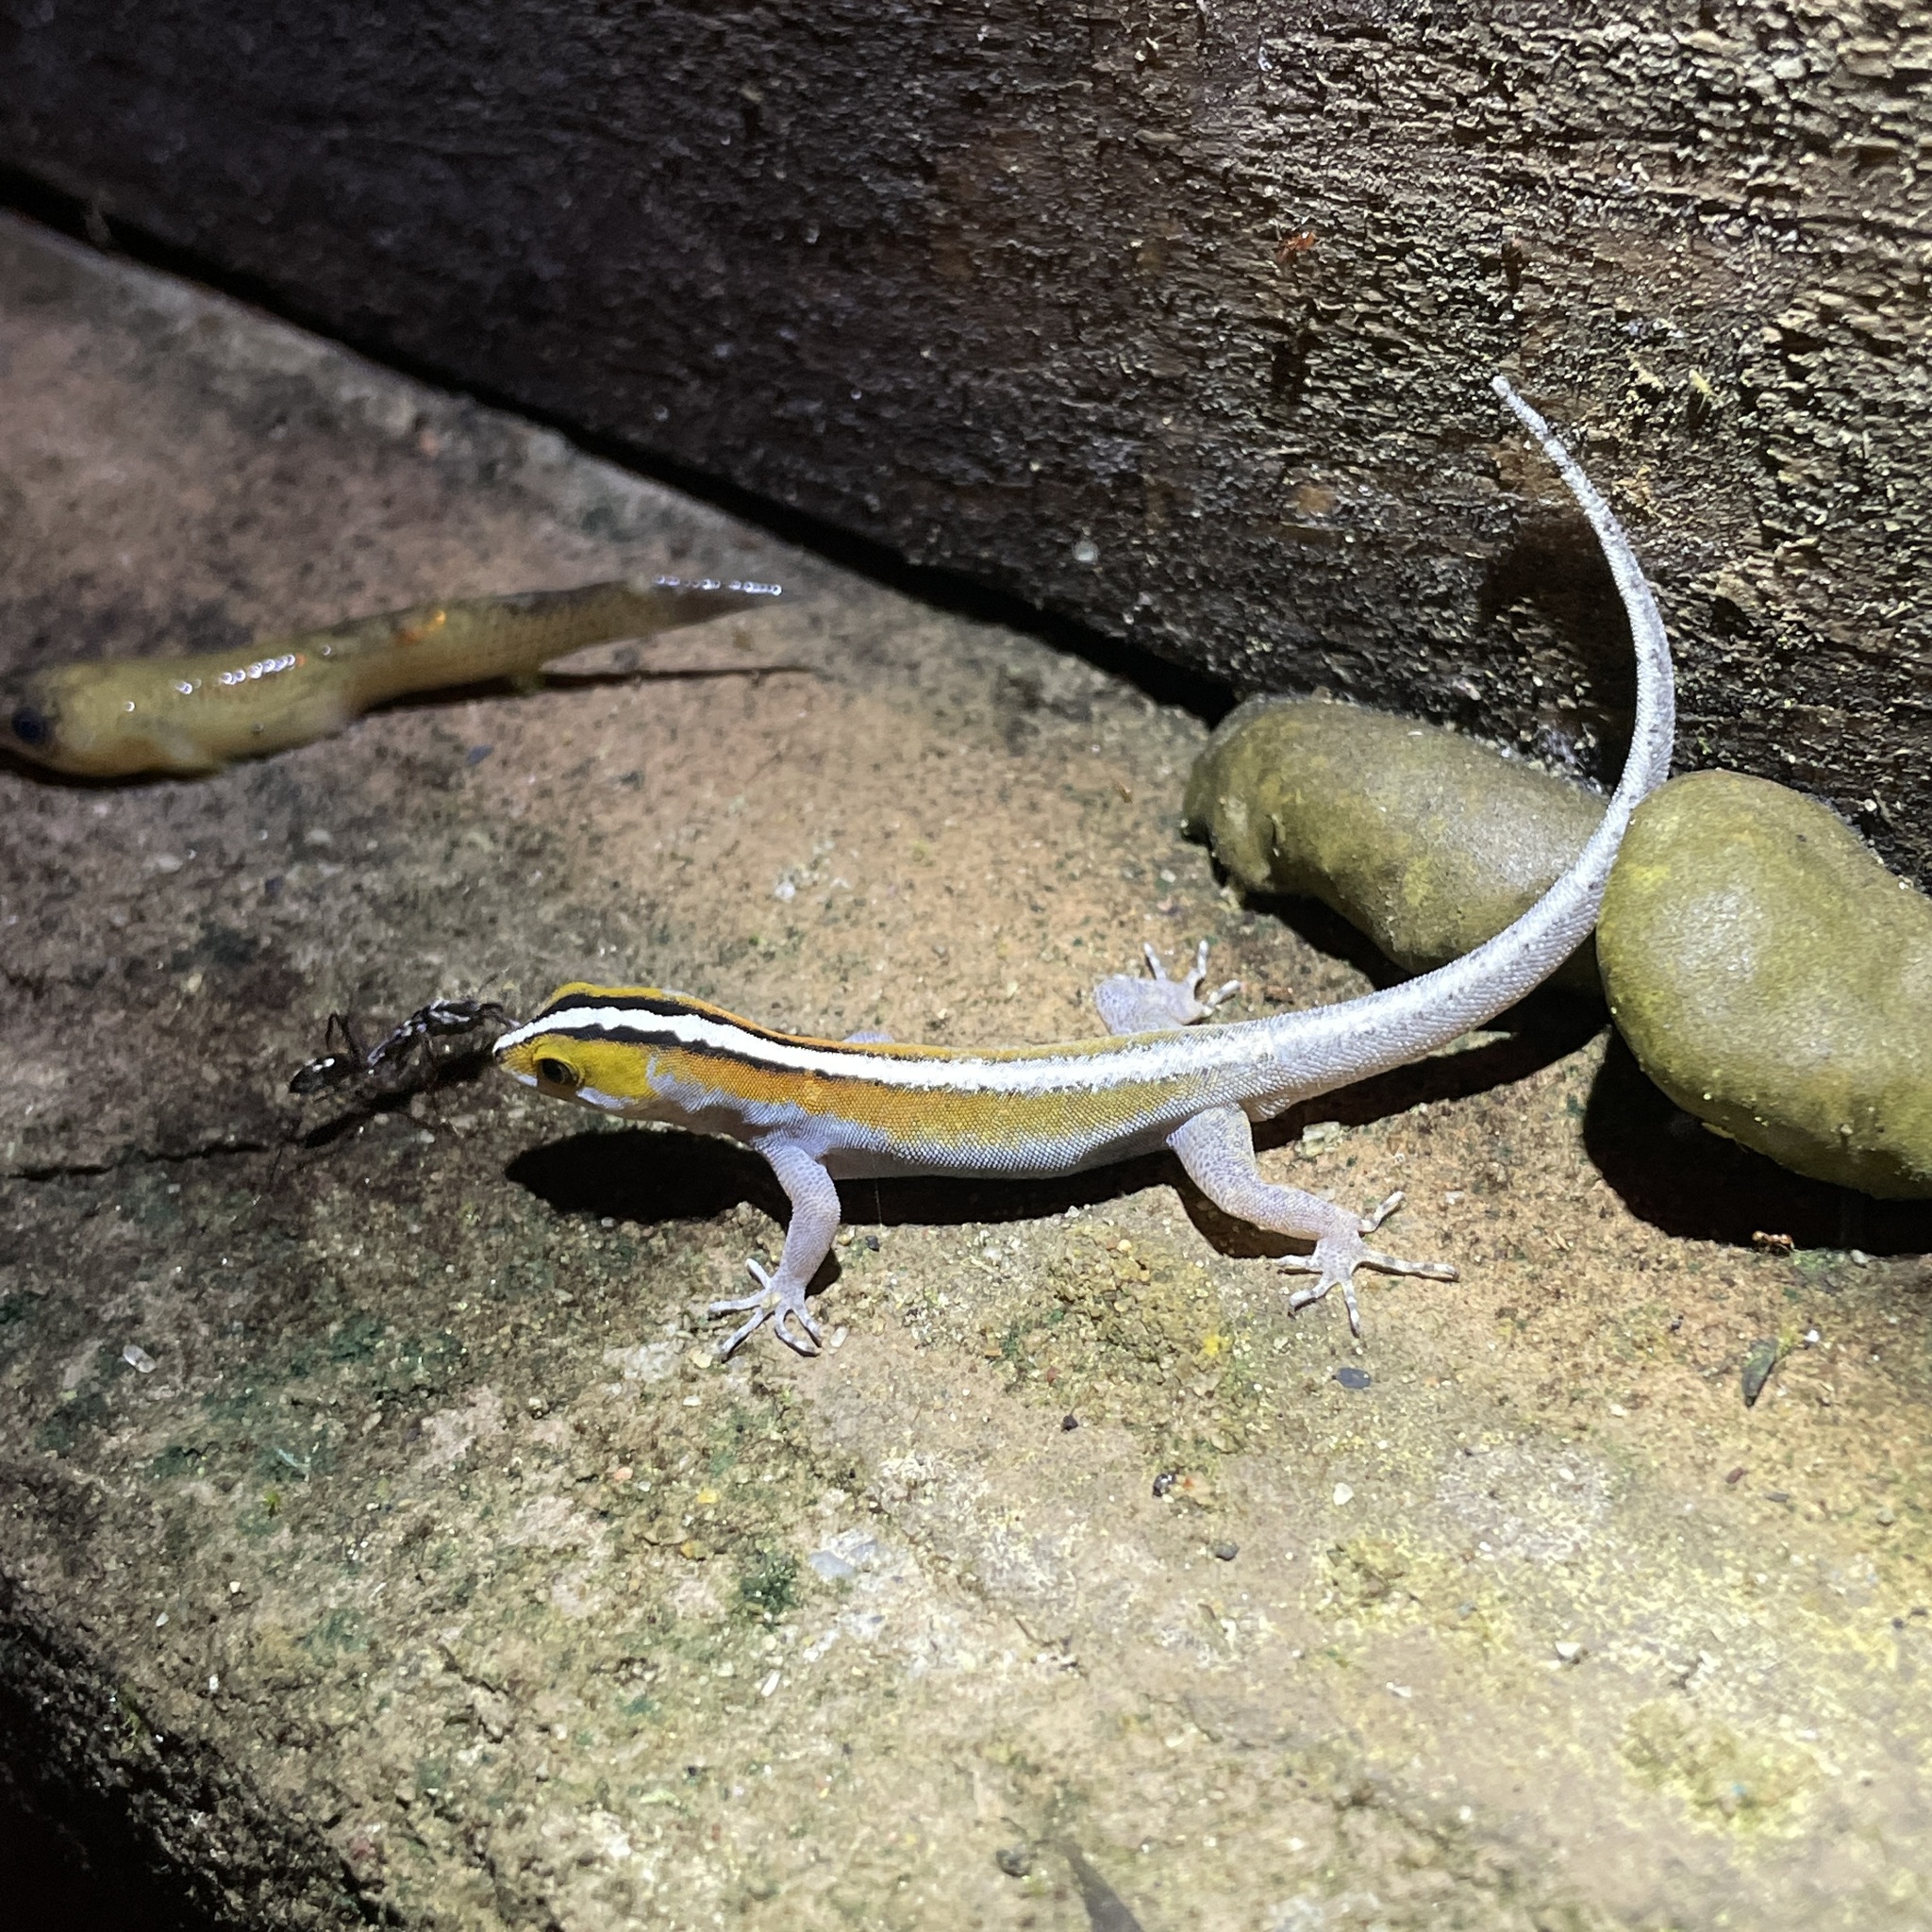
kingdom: Animalia
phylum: Chordata
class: Squamata
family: Sphaerodactylidae
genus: Gonatodes
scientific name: Gonatodes vittatus
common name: Wiegmann's striped gecko
